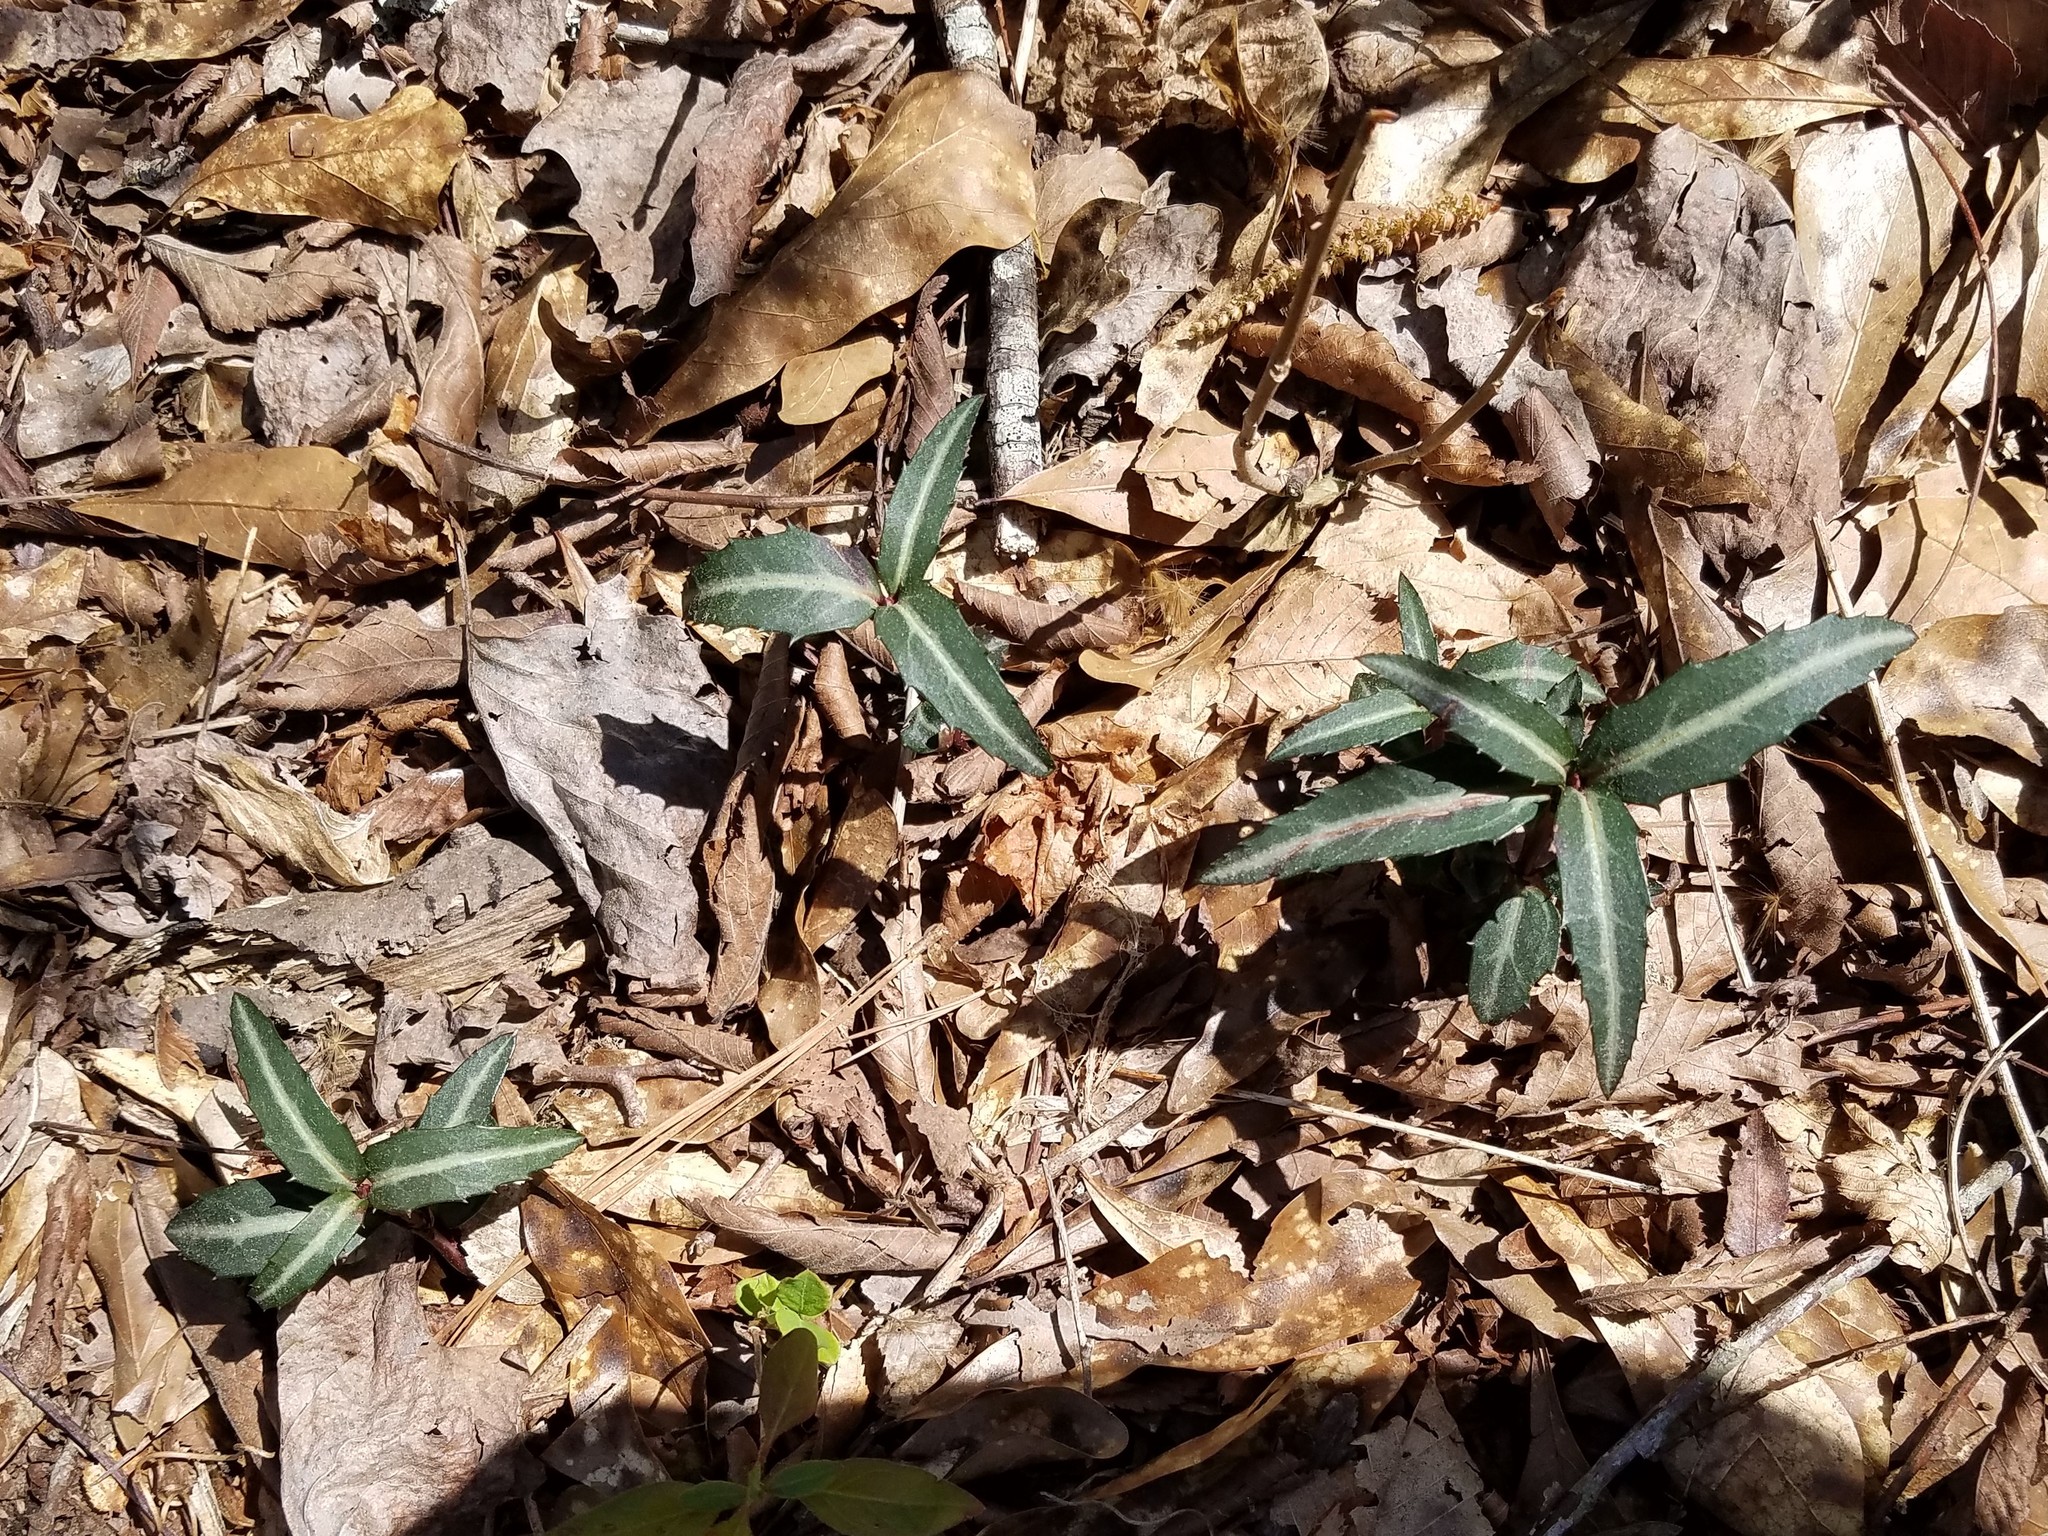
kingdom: Plantae
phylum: Tracheophyta
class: Magnoliopsida
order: Ericales
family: Ericaceae
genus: Chimaphila
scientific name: Chimaphila maculata
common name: Spotted pipsissewa
